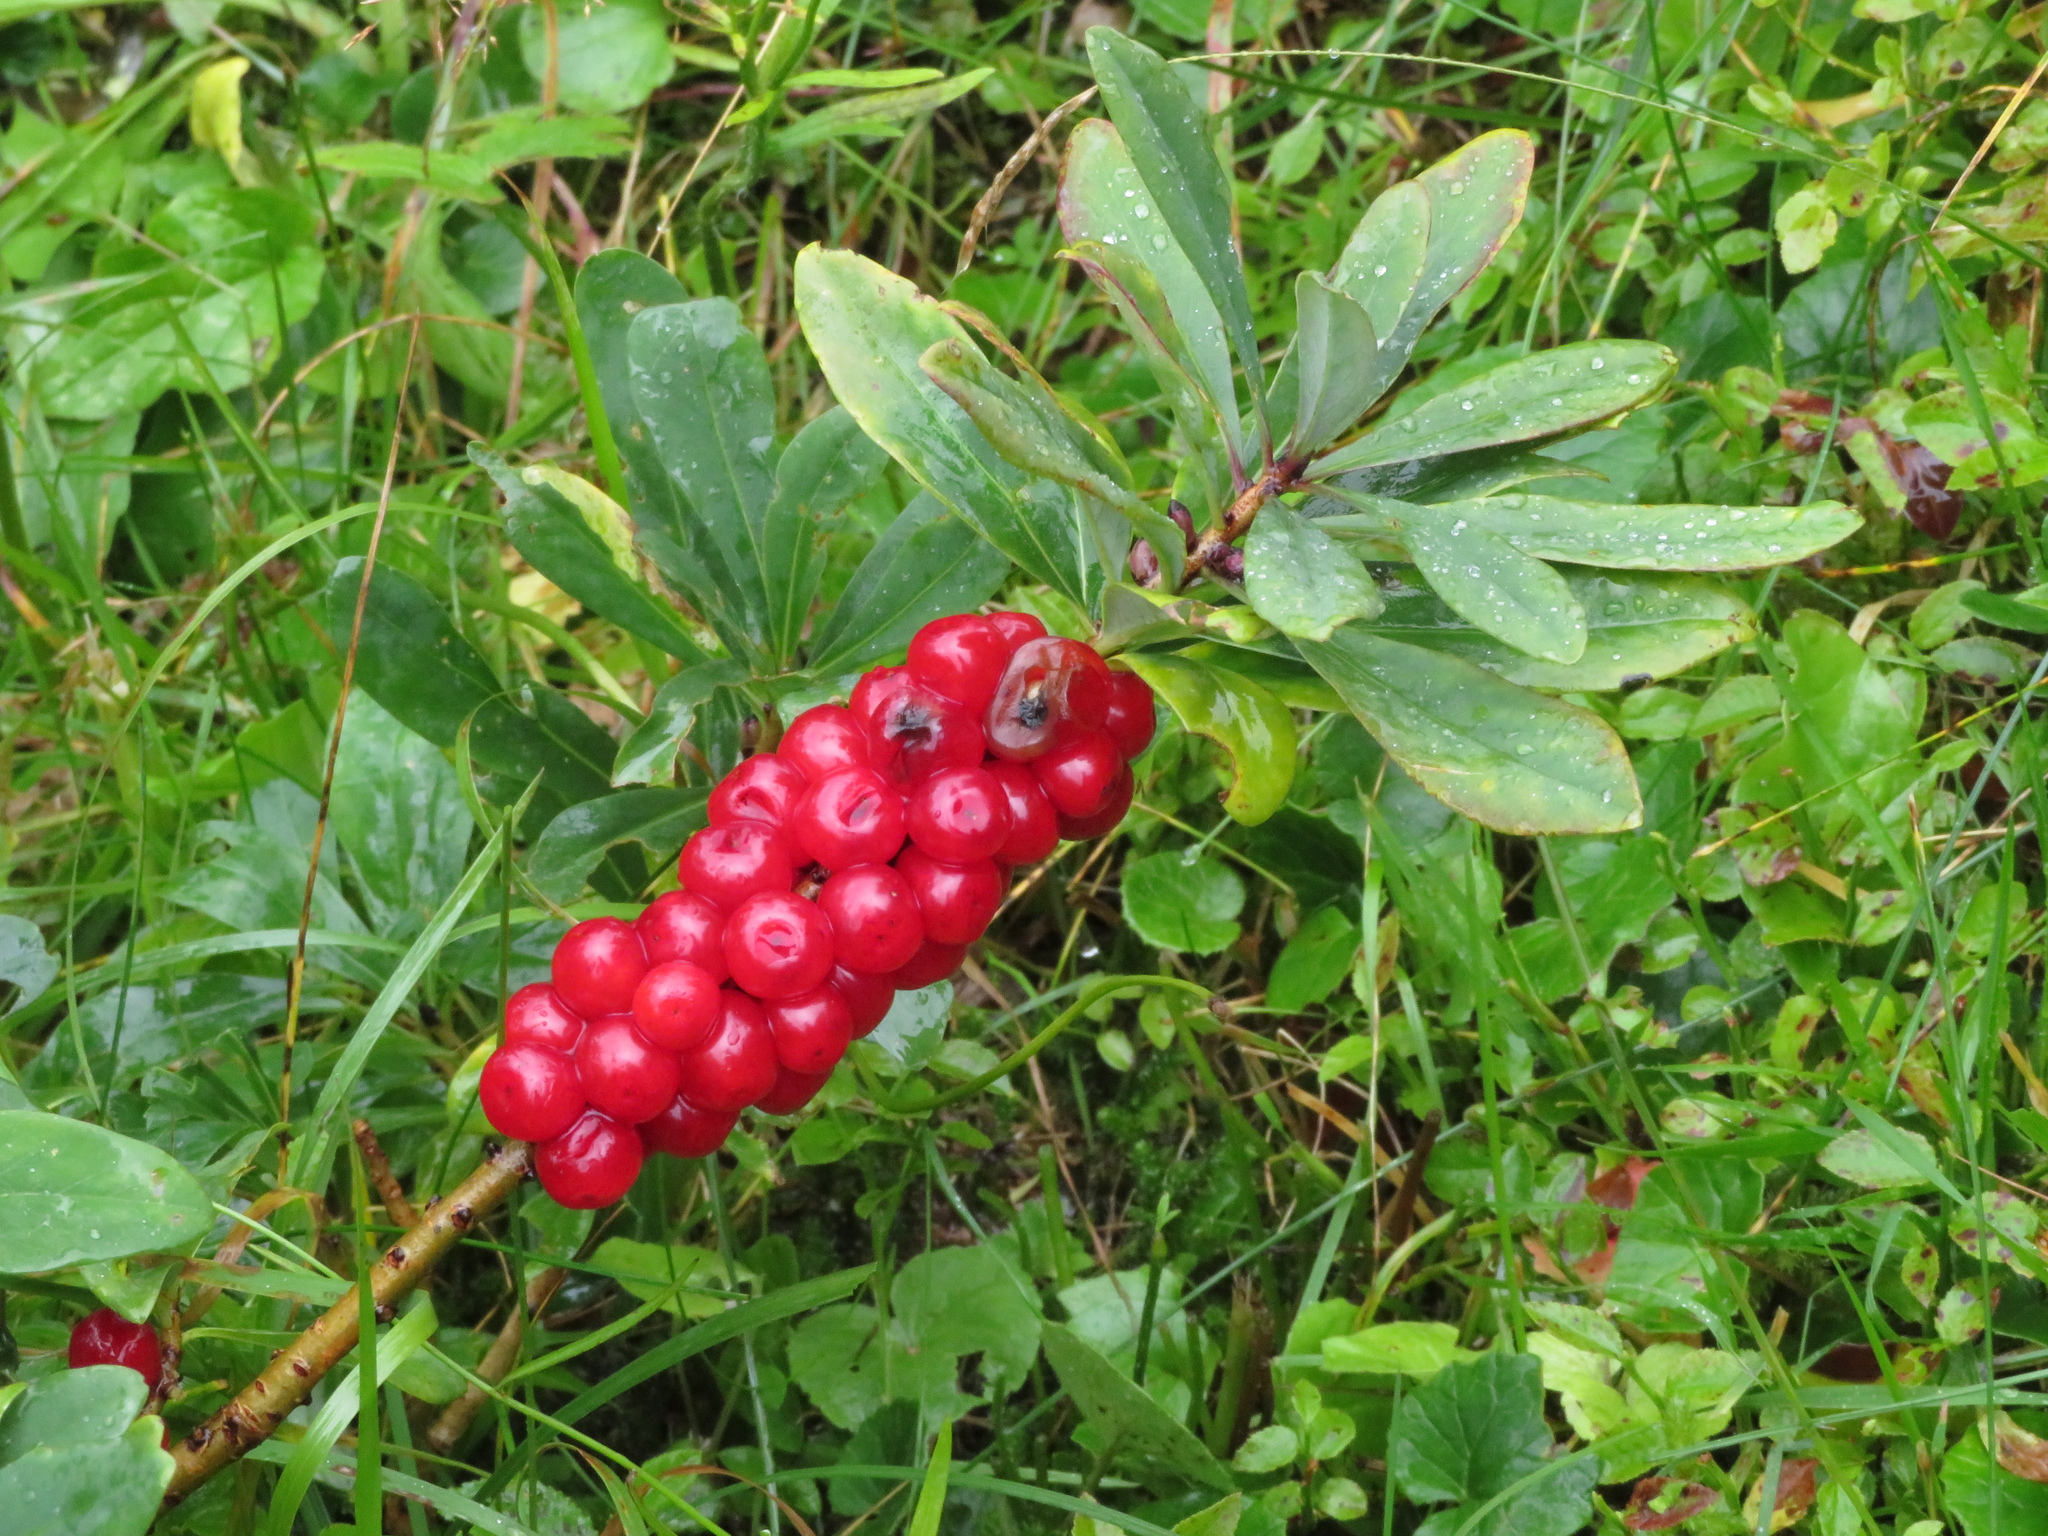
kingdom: Plantae
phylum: Tracheophyta
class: Magnoliopsida
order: Malvales
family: Thymelaeaceae
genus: Daphne
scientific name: Daphne mezereum
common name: Mezereon
